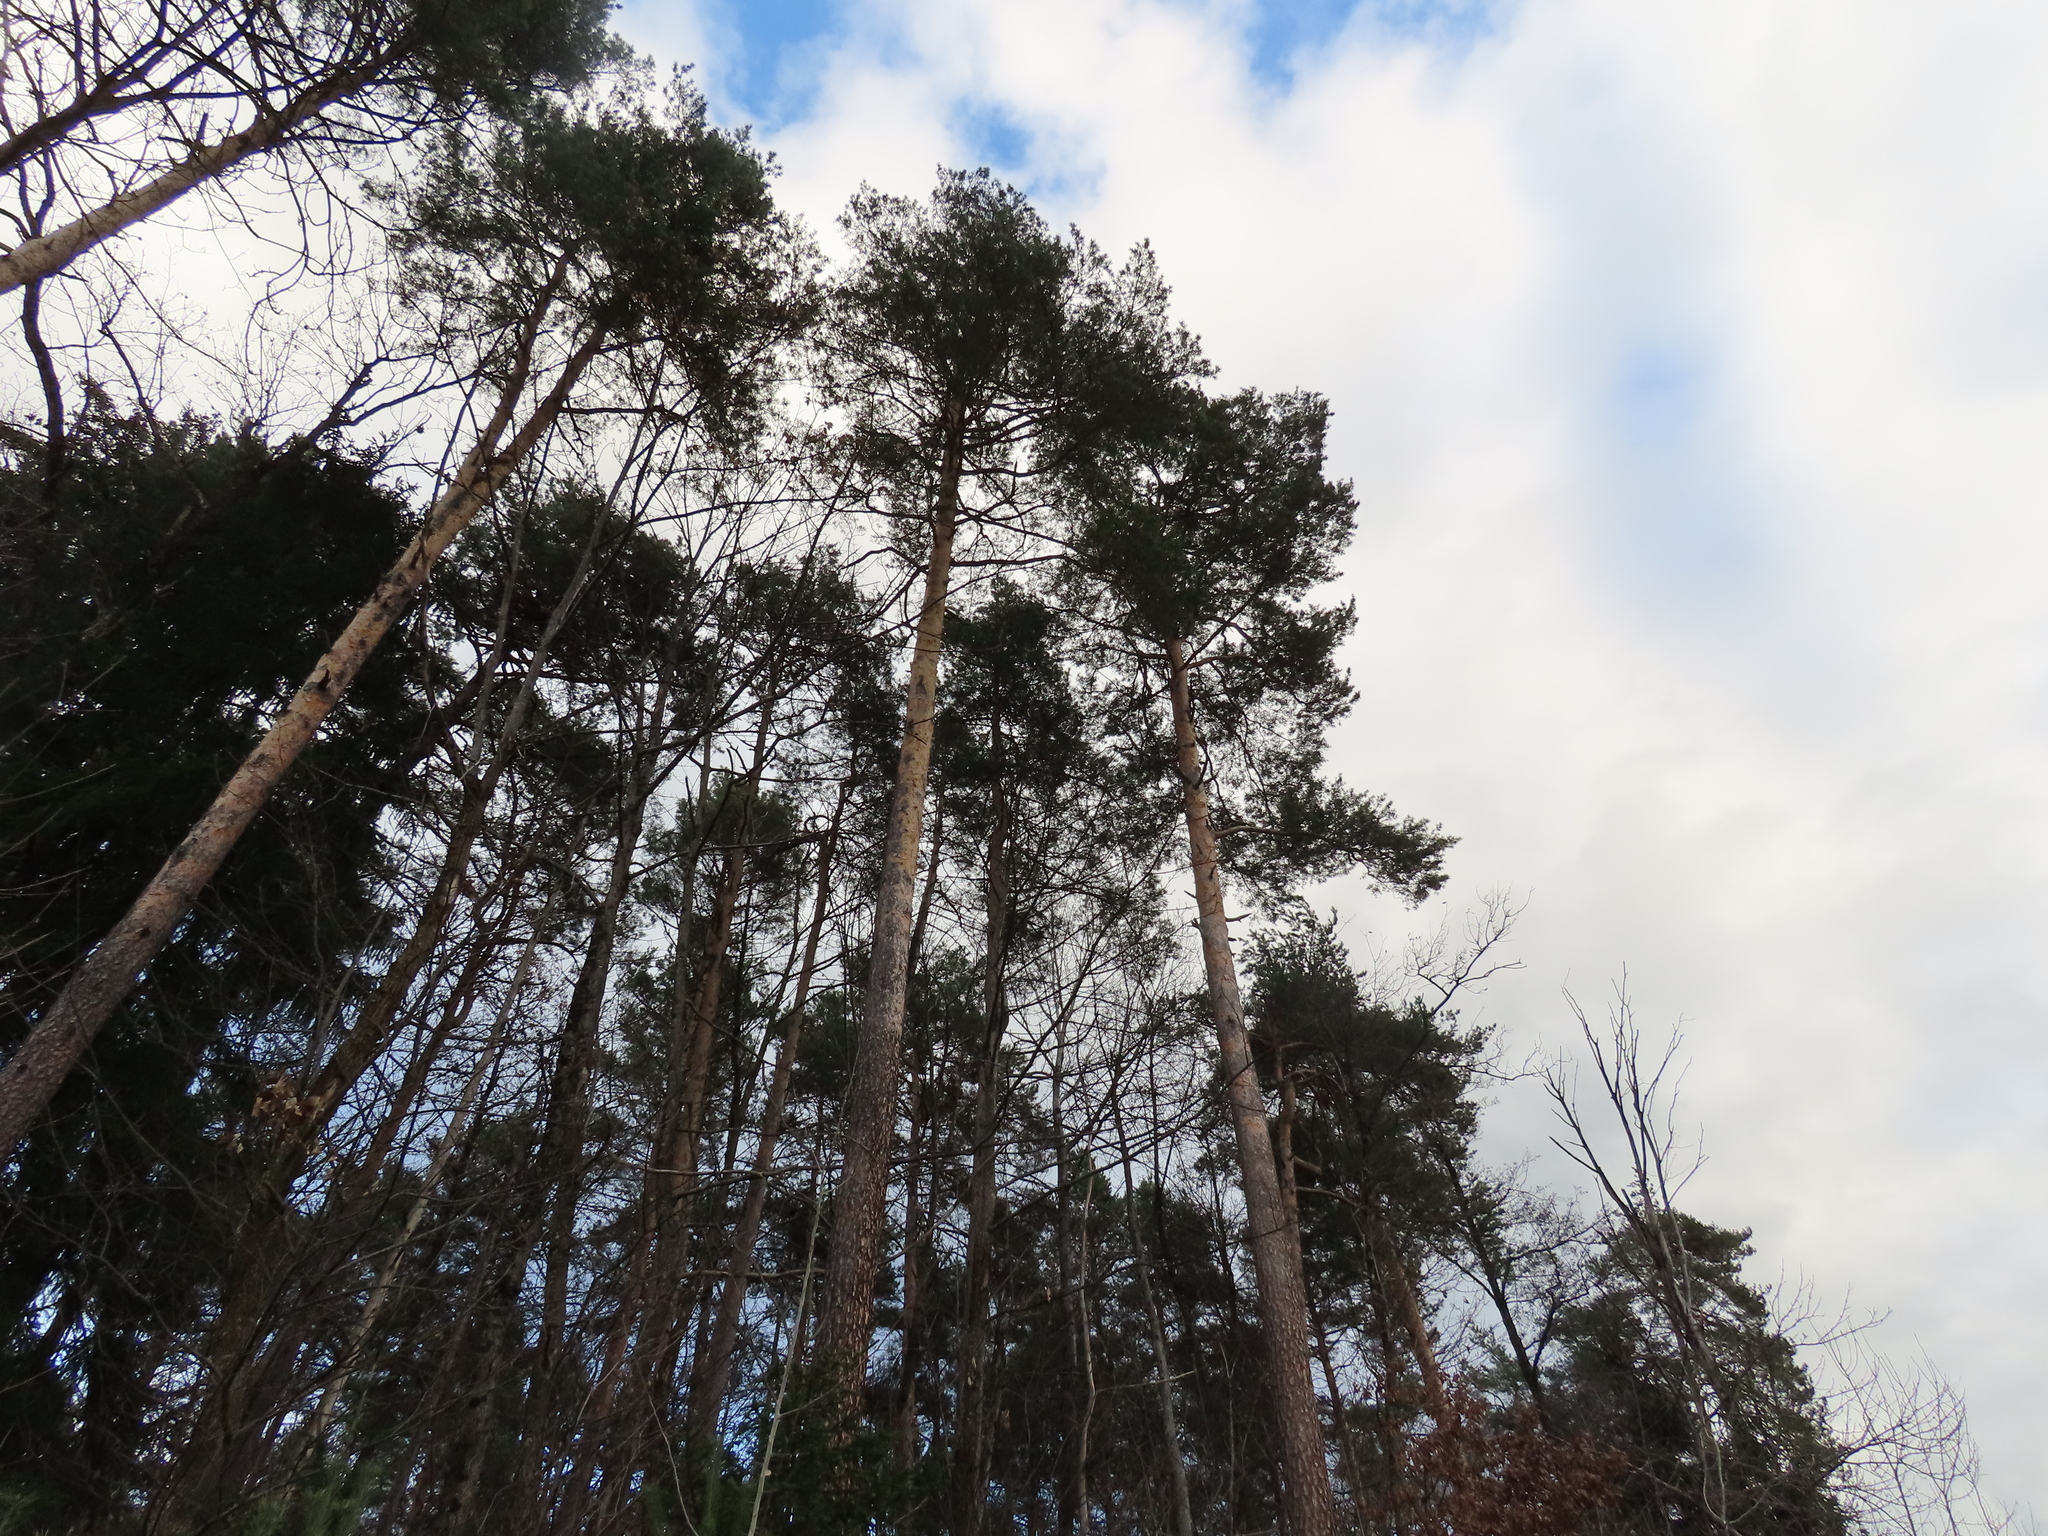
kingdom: Plantae
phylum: Tracheophyta
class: Pinopsida
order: Pinales
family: Pinaceae
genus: Pinus
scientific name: Pinus sylvestris
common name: Scots pine
